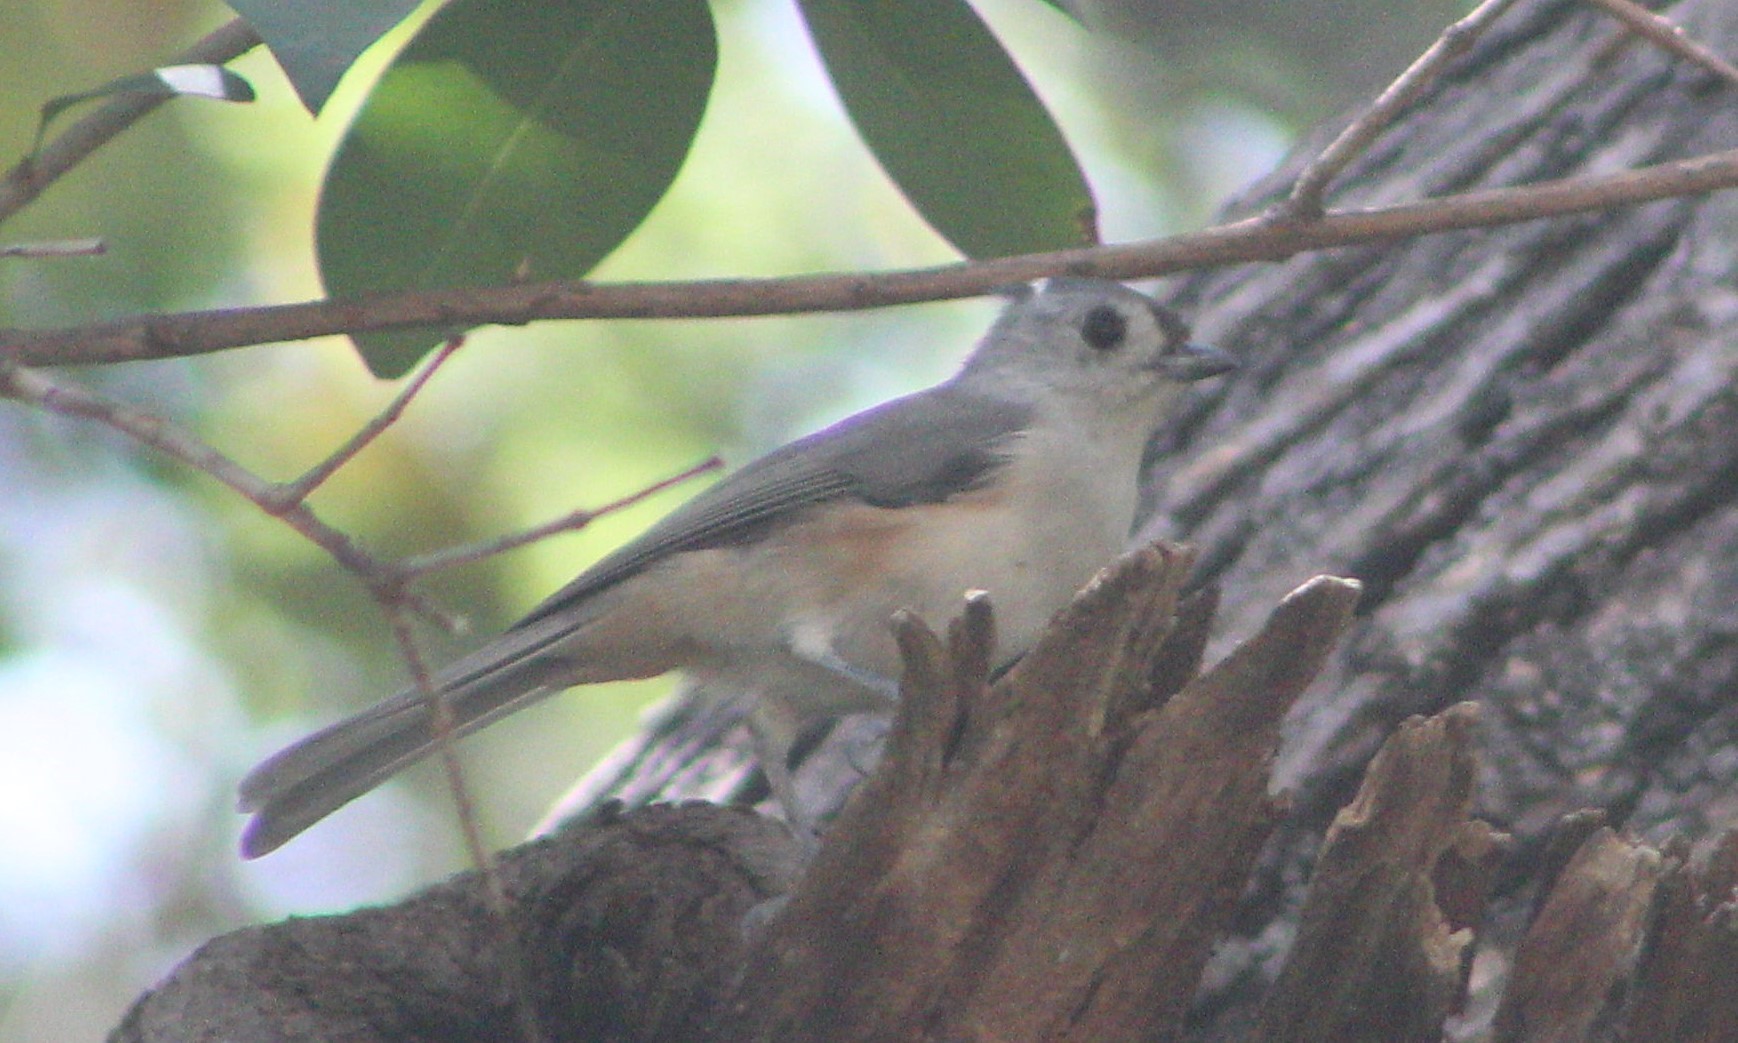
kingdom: Animalia
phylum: Chordata
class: Aves
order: Passeriformes
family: Paridae
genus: Baeolophus
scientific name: Baeolophus bicolor
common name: Tufted titmouse
